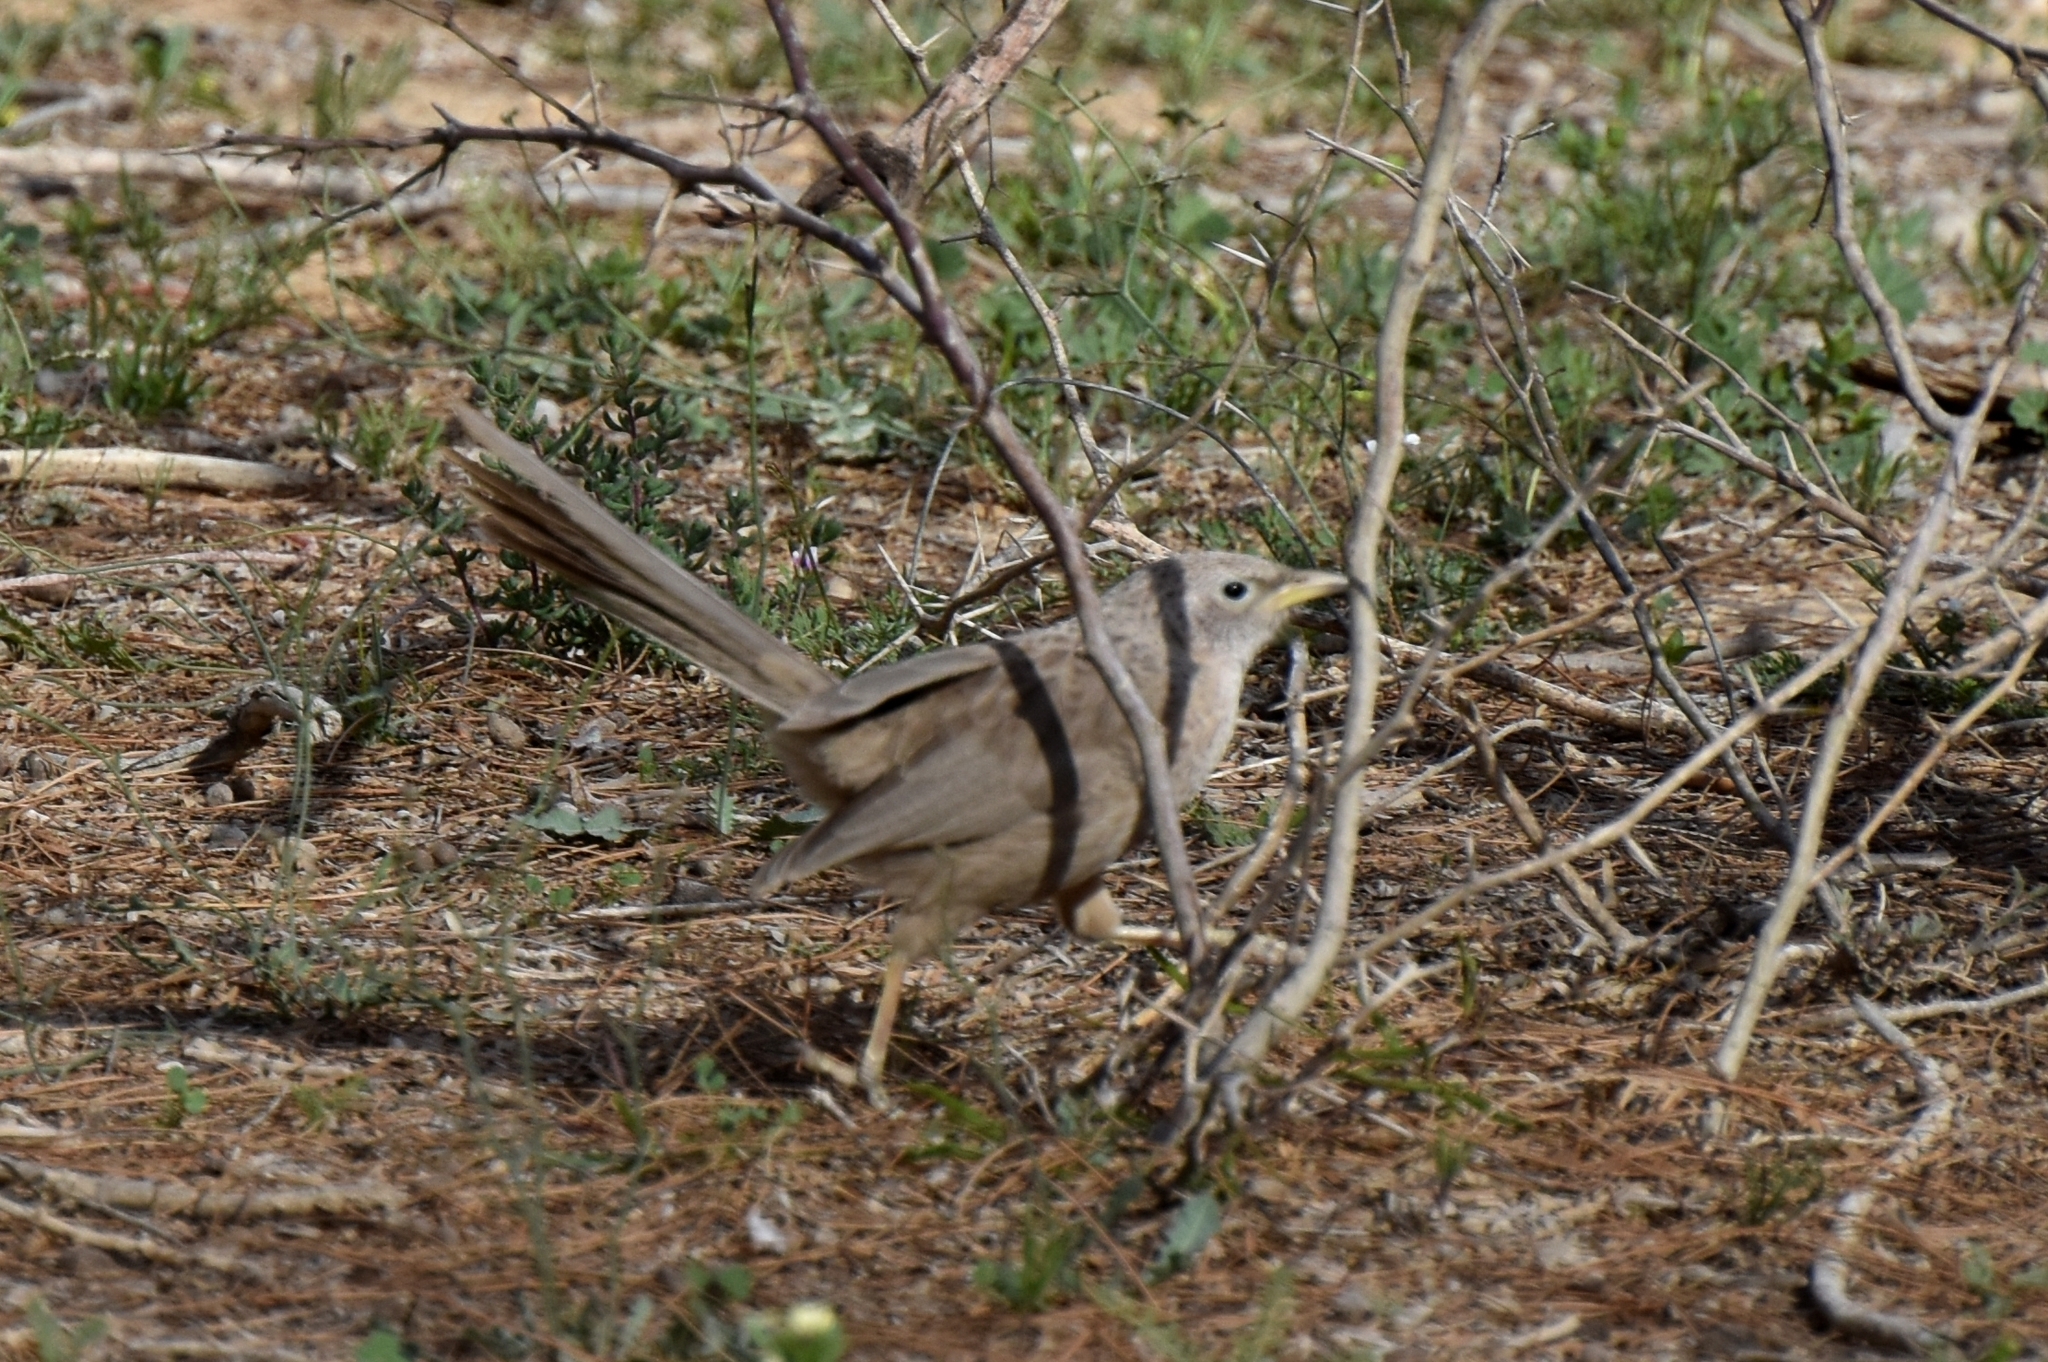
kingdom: Animalia
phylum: Chordata
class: Aves
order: Passeriformes
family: Leiothrichidae
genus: Turdoides
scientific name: Turdoides squamiceps
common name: Arabian babbler
